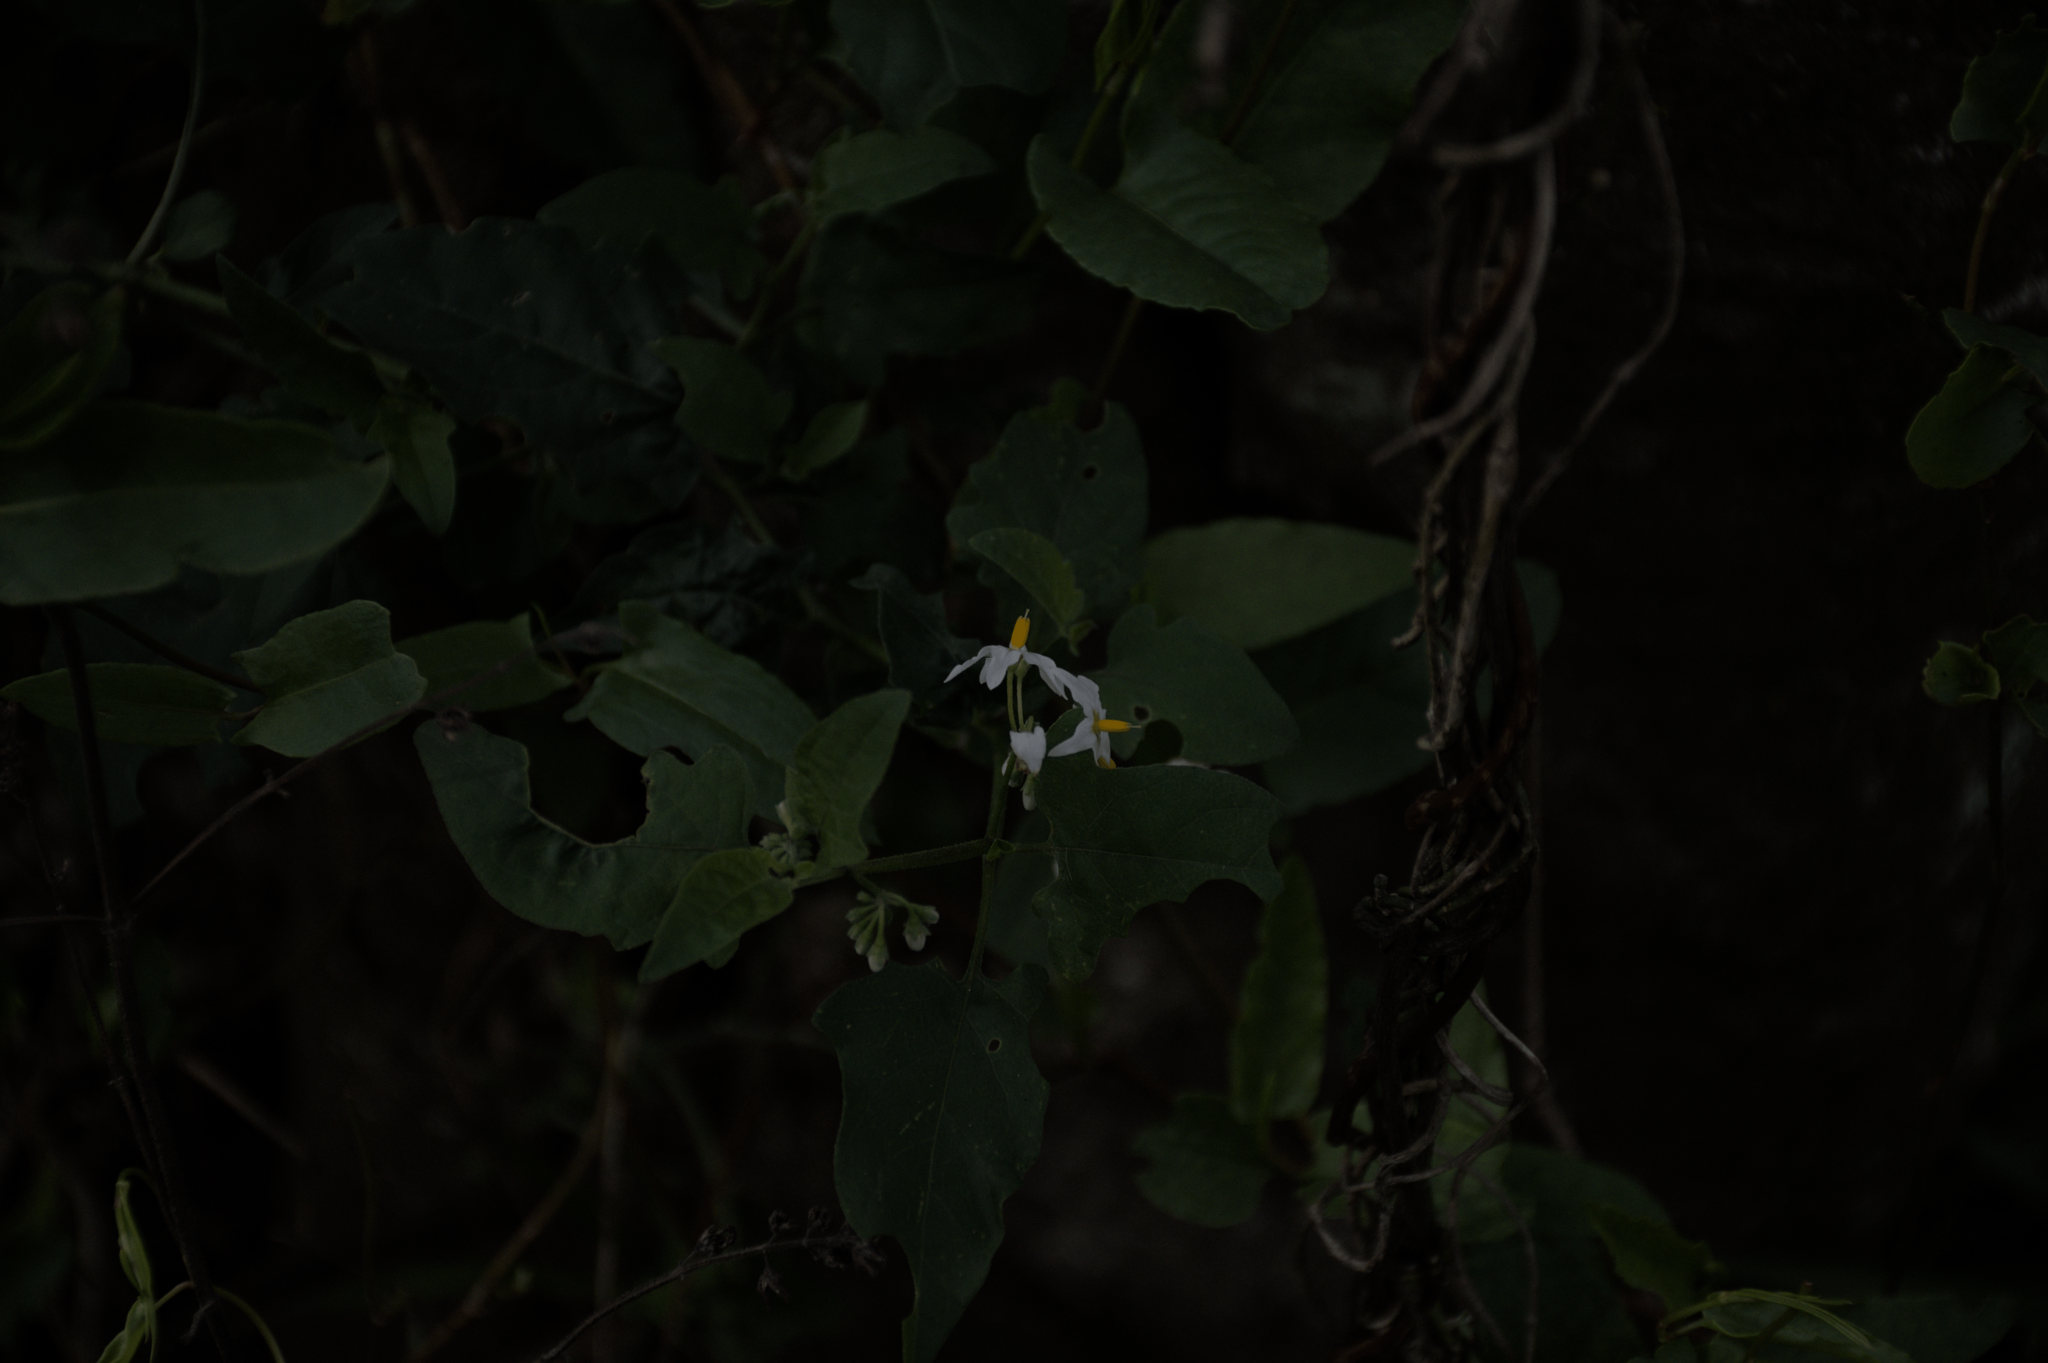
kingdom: Plantae
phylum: Tracheophyta
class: Magnoliopsida
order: Solanales
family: Solanaceae
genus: Solanum
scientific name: Solanum pilcomayense
